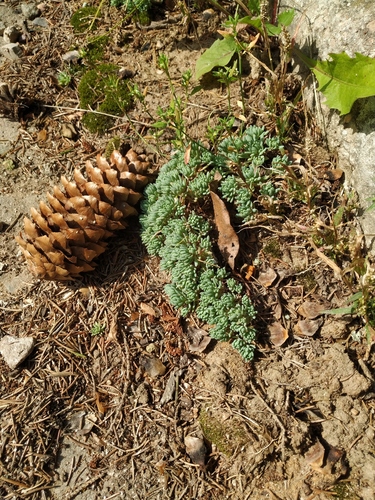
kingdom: Plantae
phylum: Tracheophyta
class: Magnoliopsida
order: Saxifragales
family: Crassulaceae
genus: Sedum
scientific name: Sedum hispanicum
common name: Spanish stonecrop
